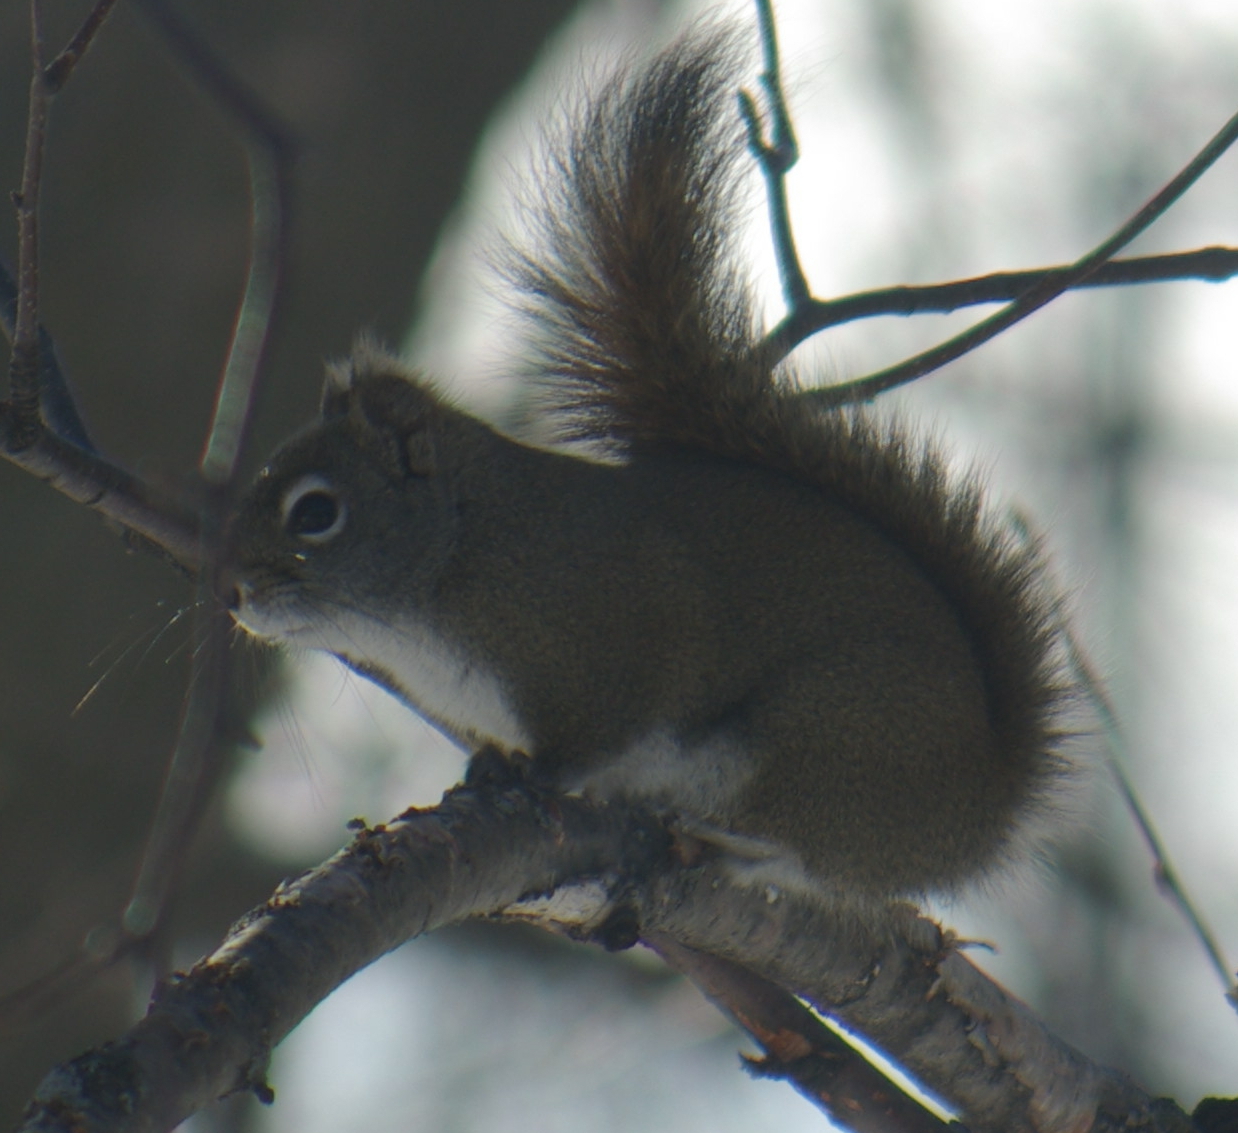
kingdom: Animalia
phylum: Chordata
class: Mammalia
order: Rodentia
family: Sciuridae
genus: Tamiasciurus
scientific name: Tamiasciurus hudsonicus
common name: Red squirrel
